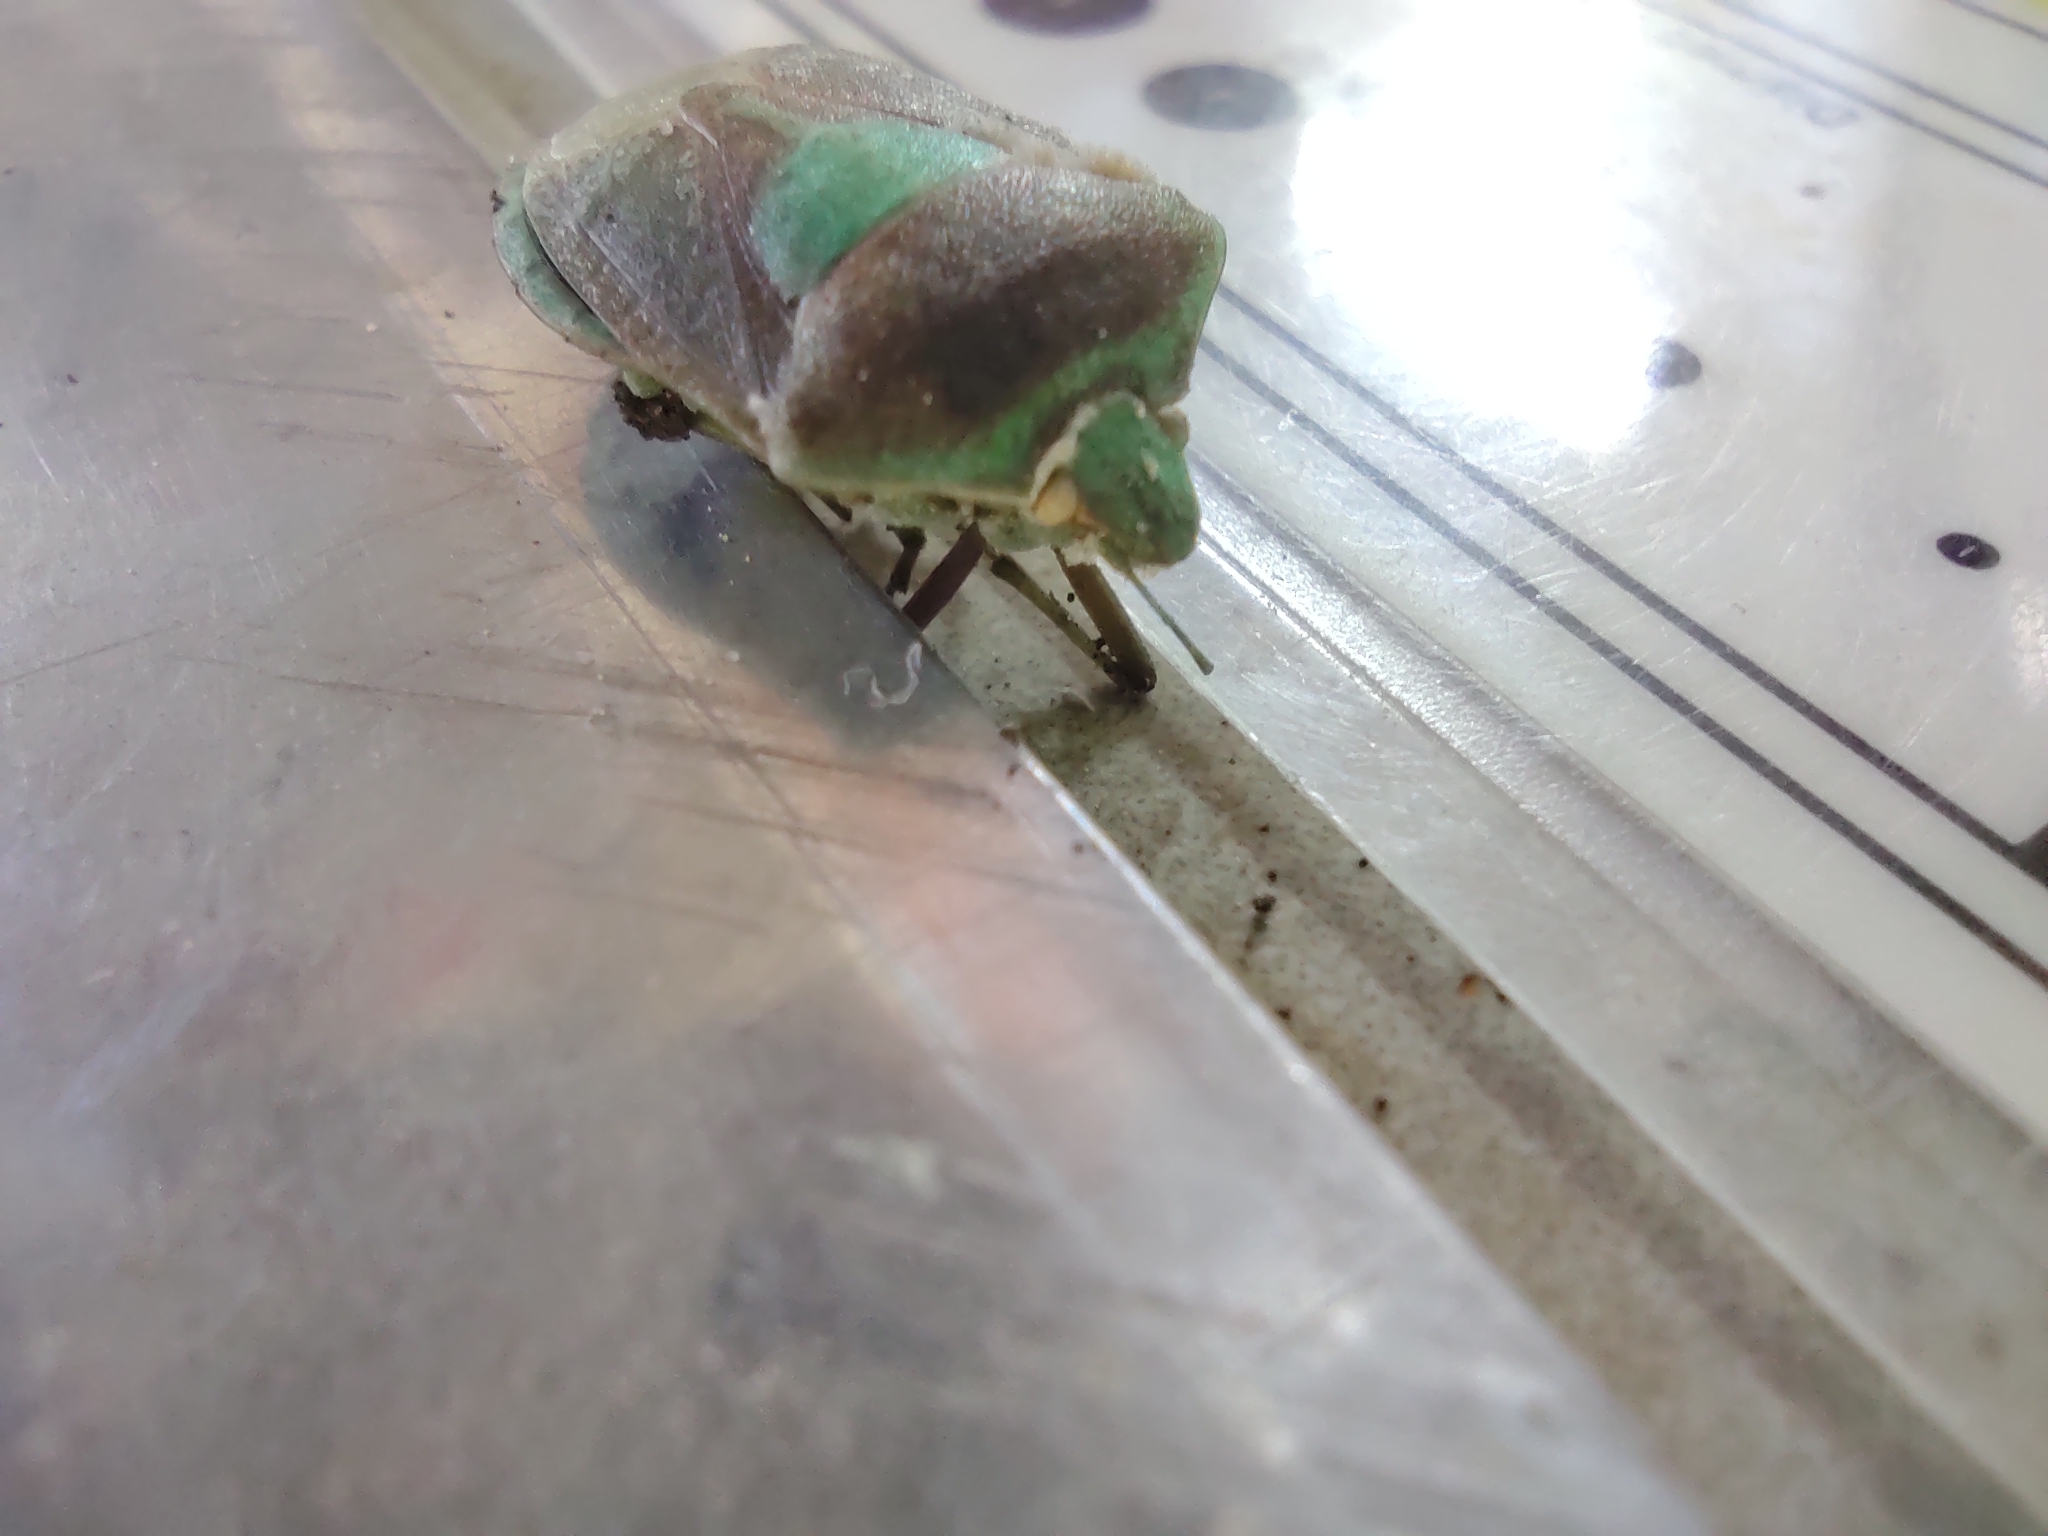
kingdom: Animalia
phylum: Arthropoda
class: Insecta
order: Hemiptera
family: Pentatomidae
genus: Nezara
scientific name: Nezara viridula
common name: Southern green stink bug
